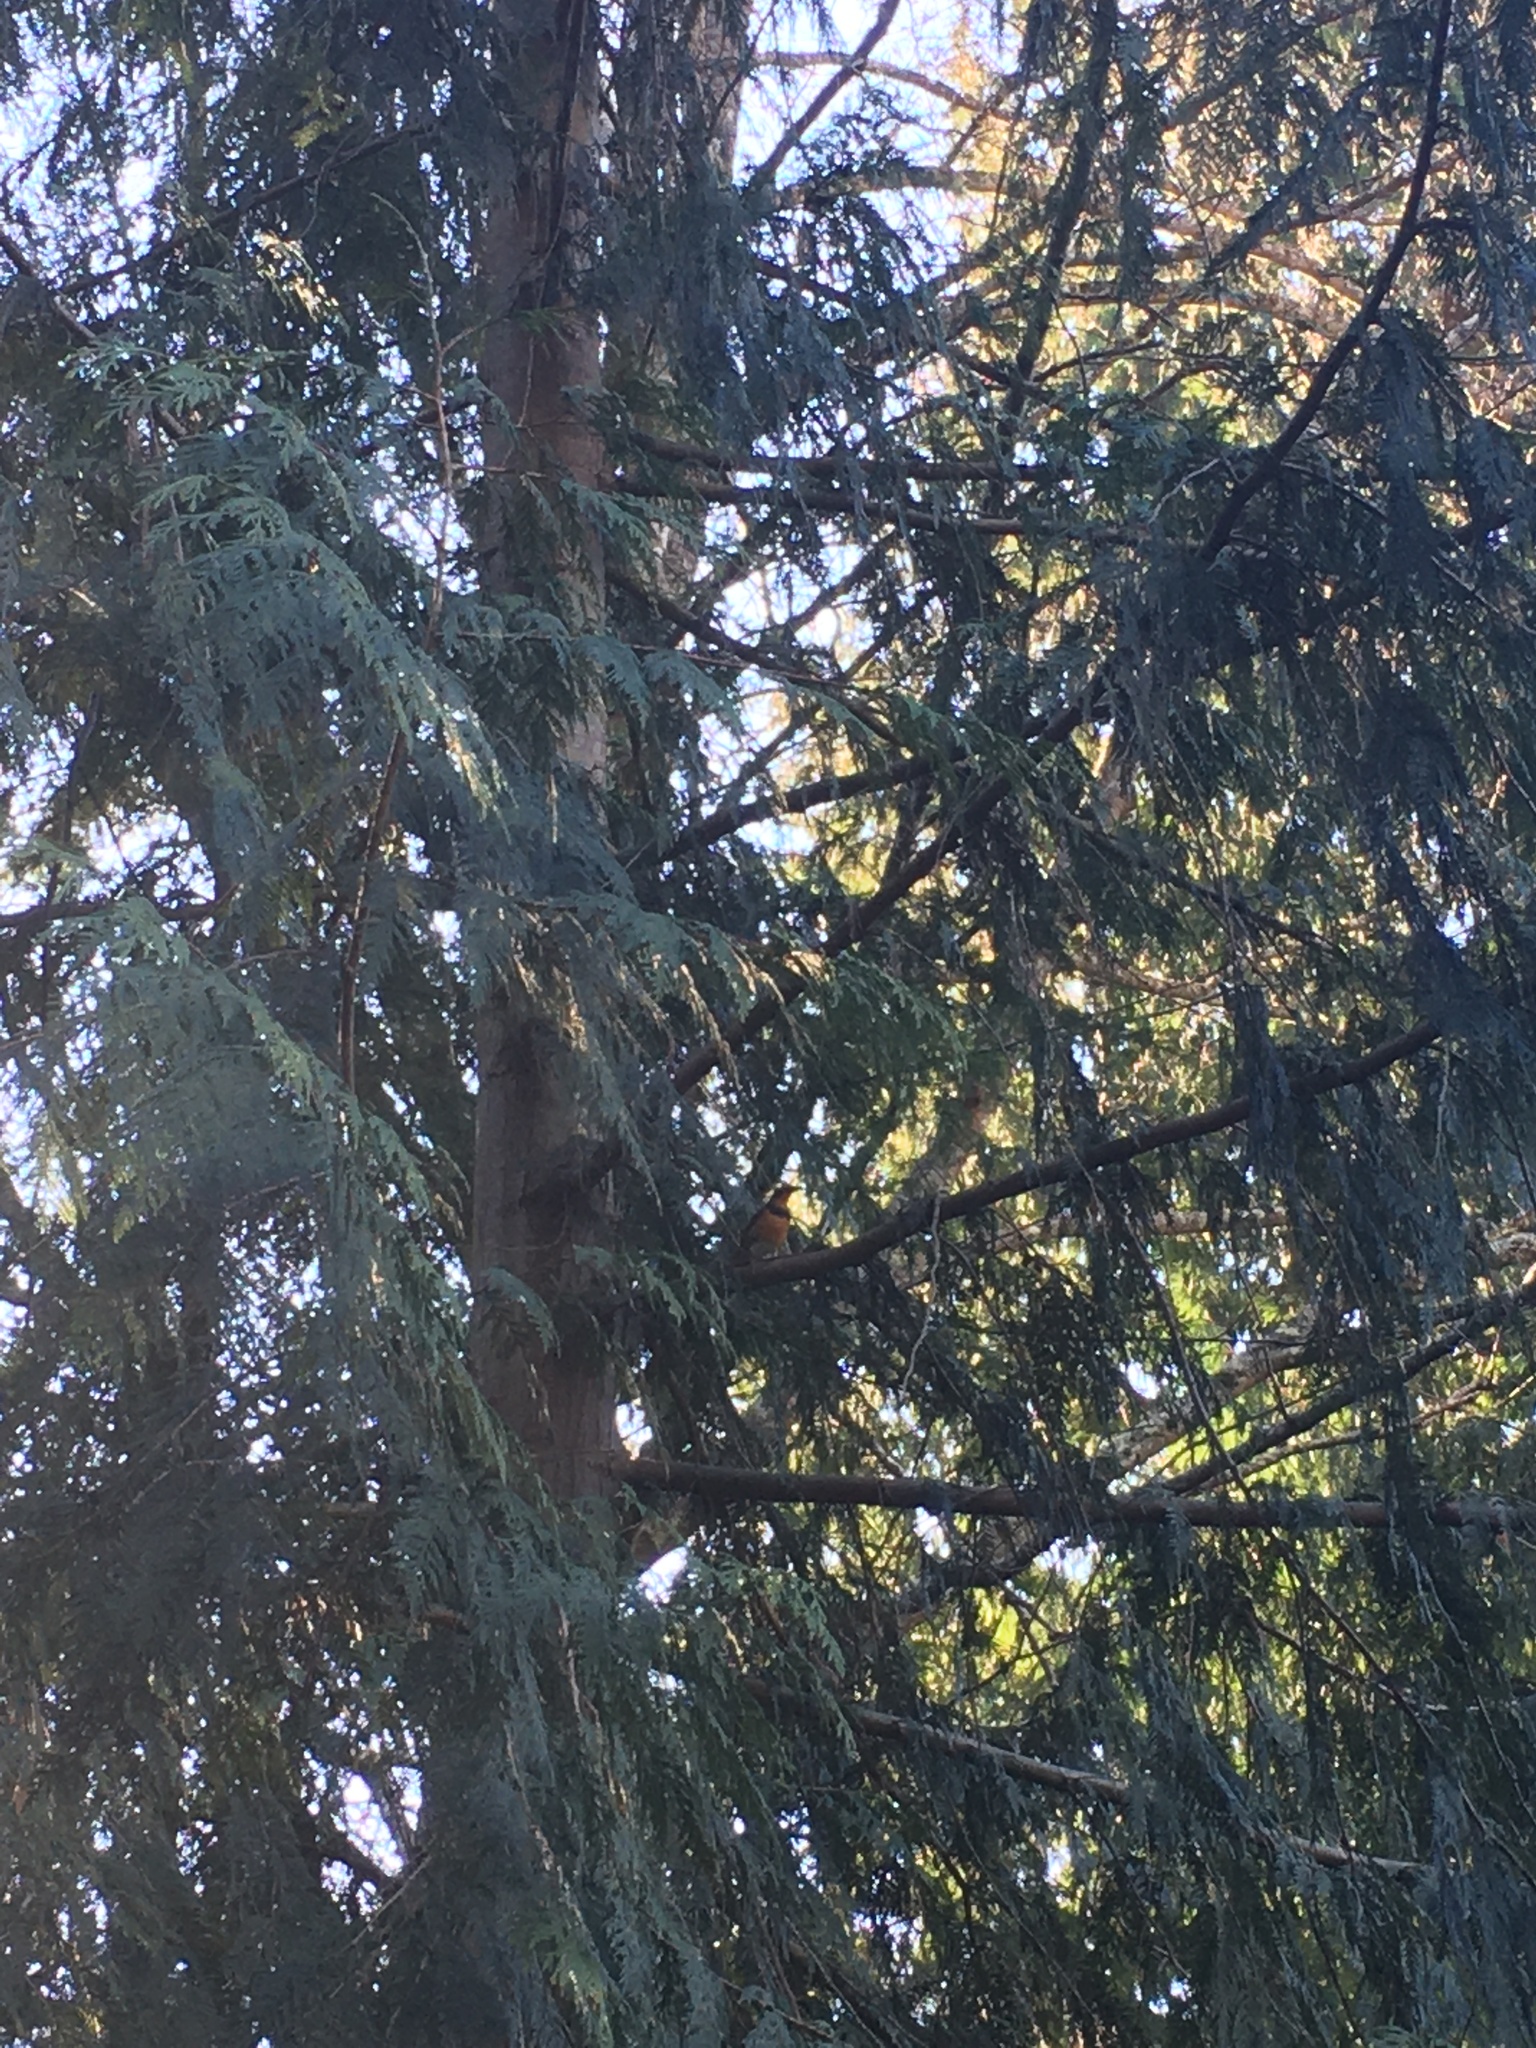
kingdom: Animalia
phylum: Chordata
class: Aves
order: Passeriformes
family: Turdidae
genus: Ixoreus
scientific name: Ixoreus naevius
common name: Varied thrush
